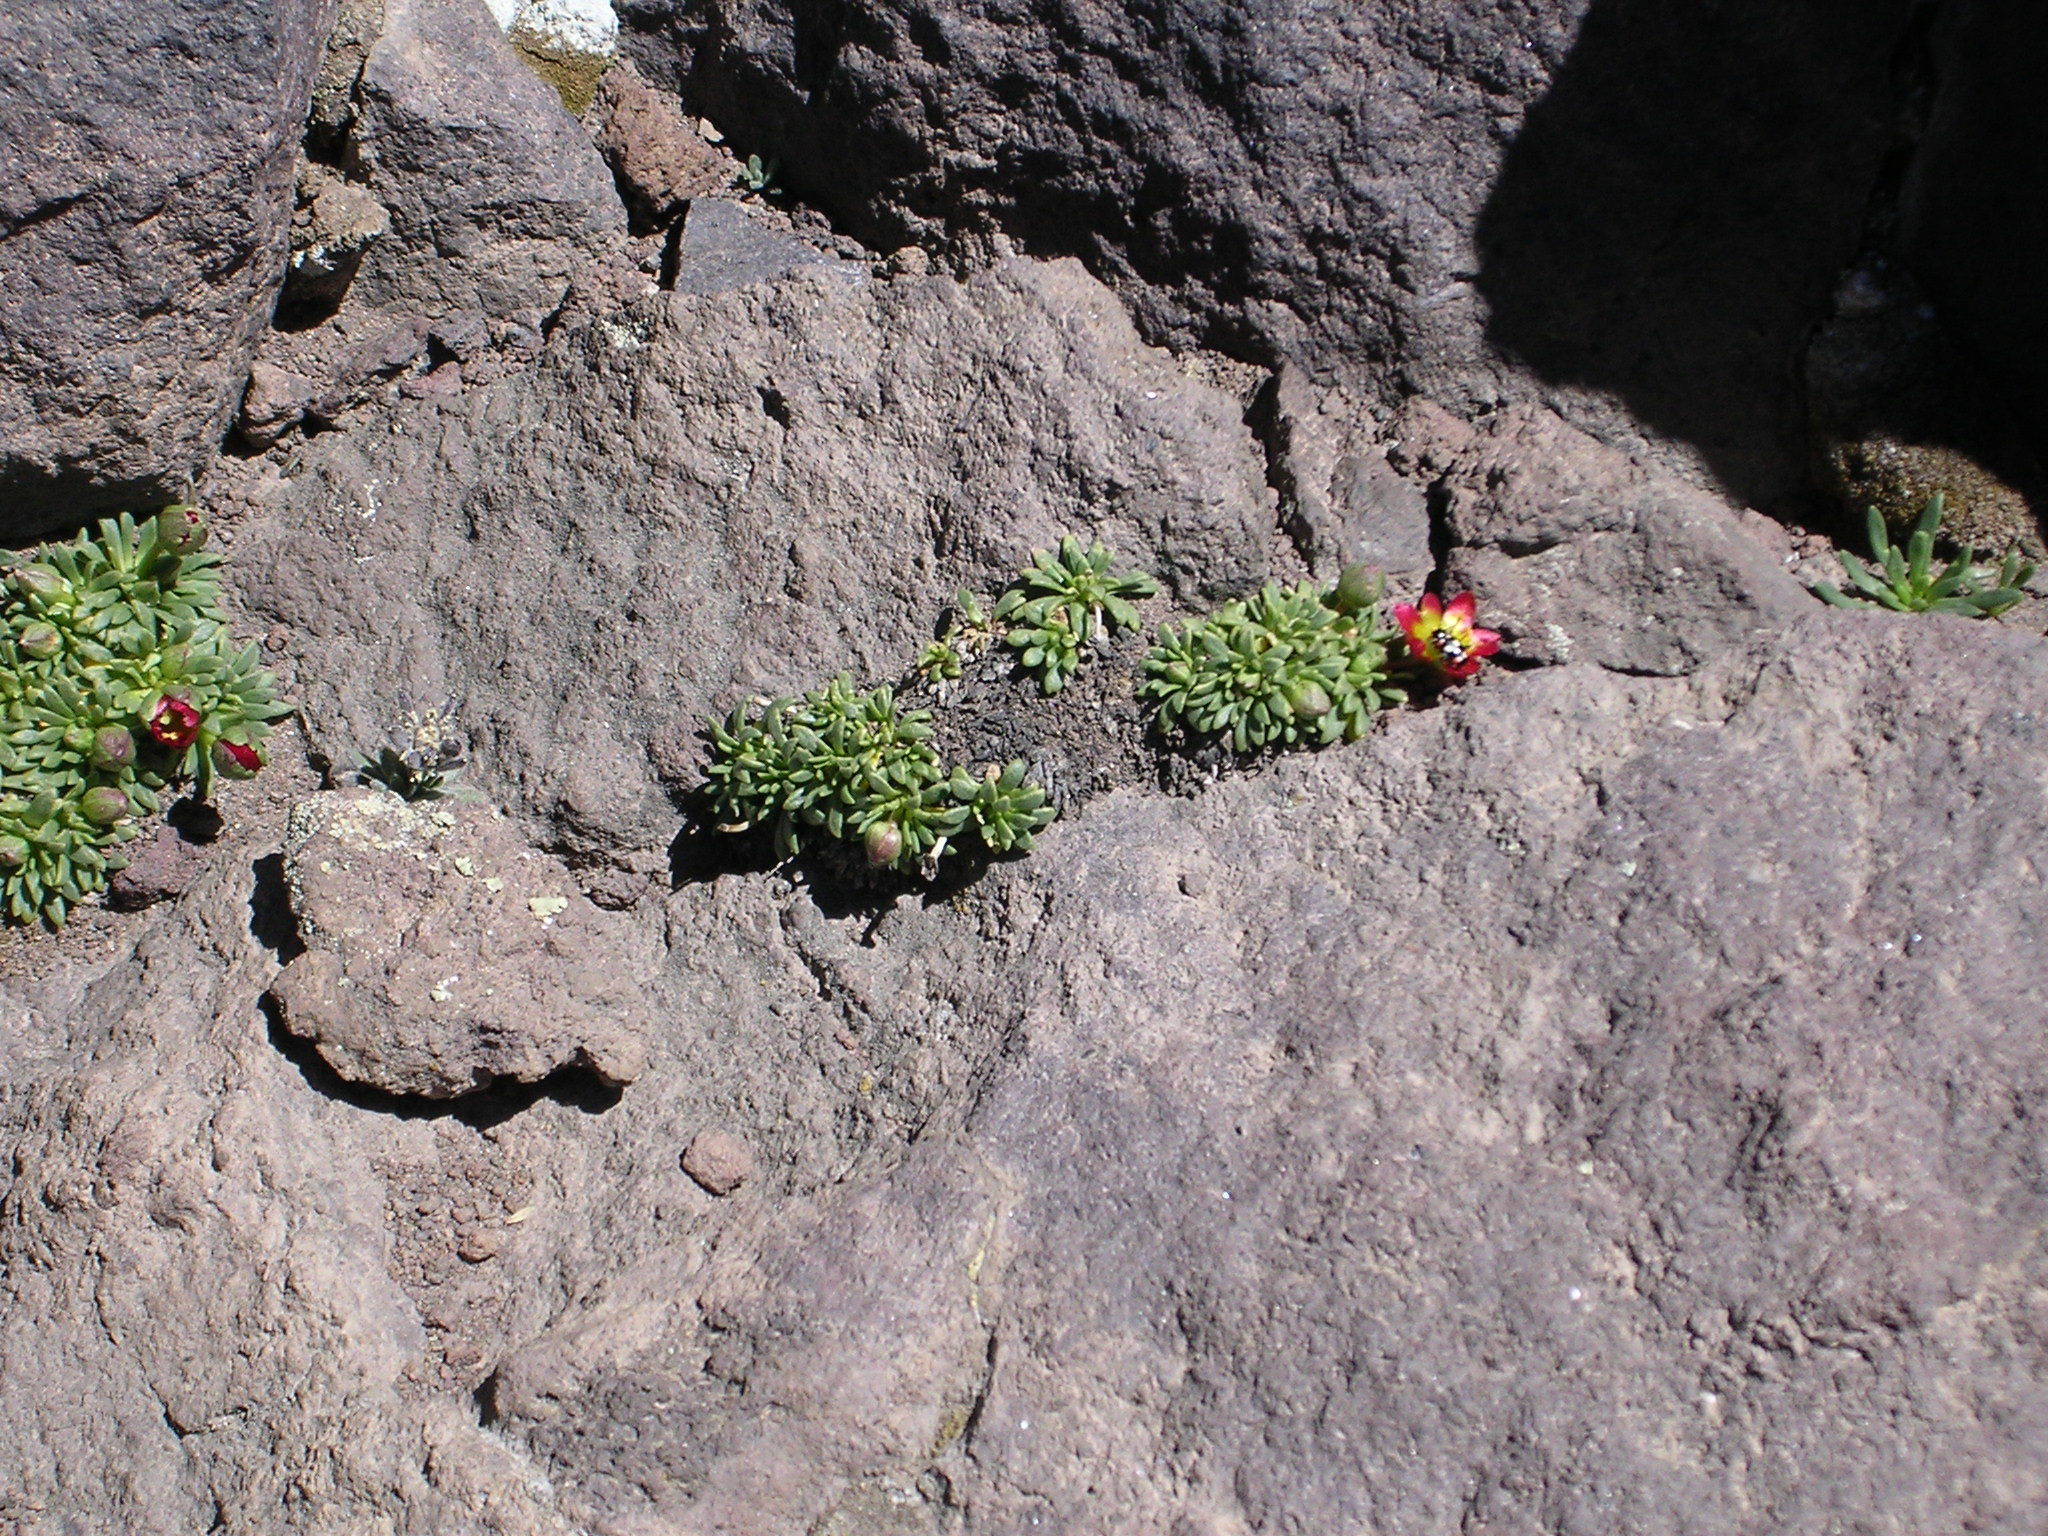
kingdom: Plantae
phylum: Tracheophyta
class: Magnoliopsida
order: Caryophyllales
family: Montiaceae
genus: Calandrinia
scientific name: Calandrinia caespitosa
